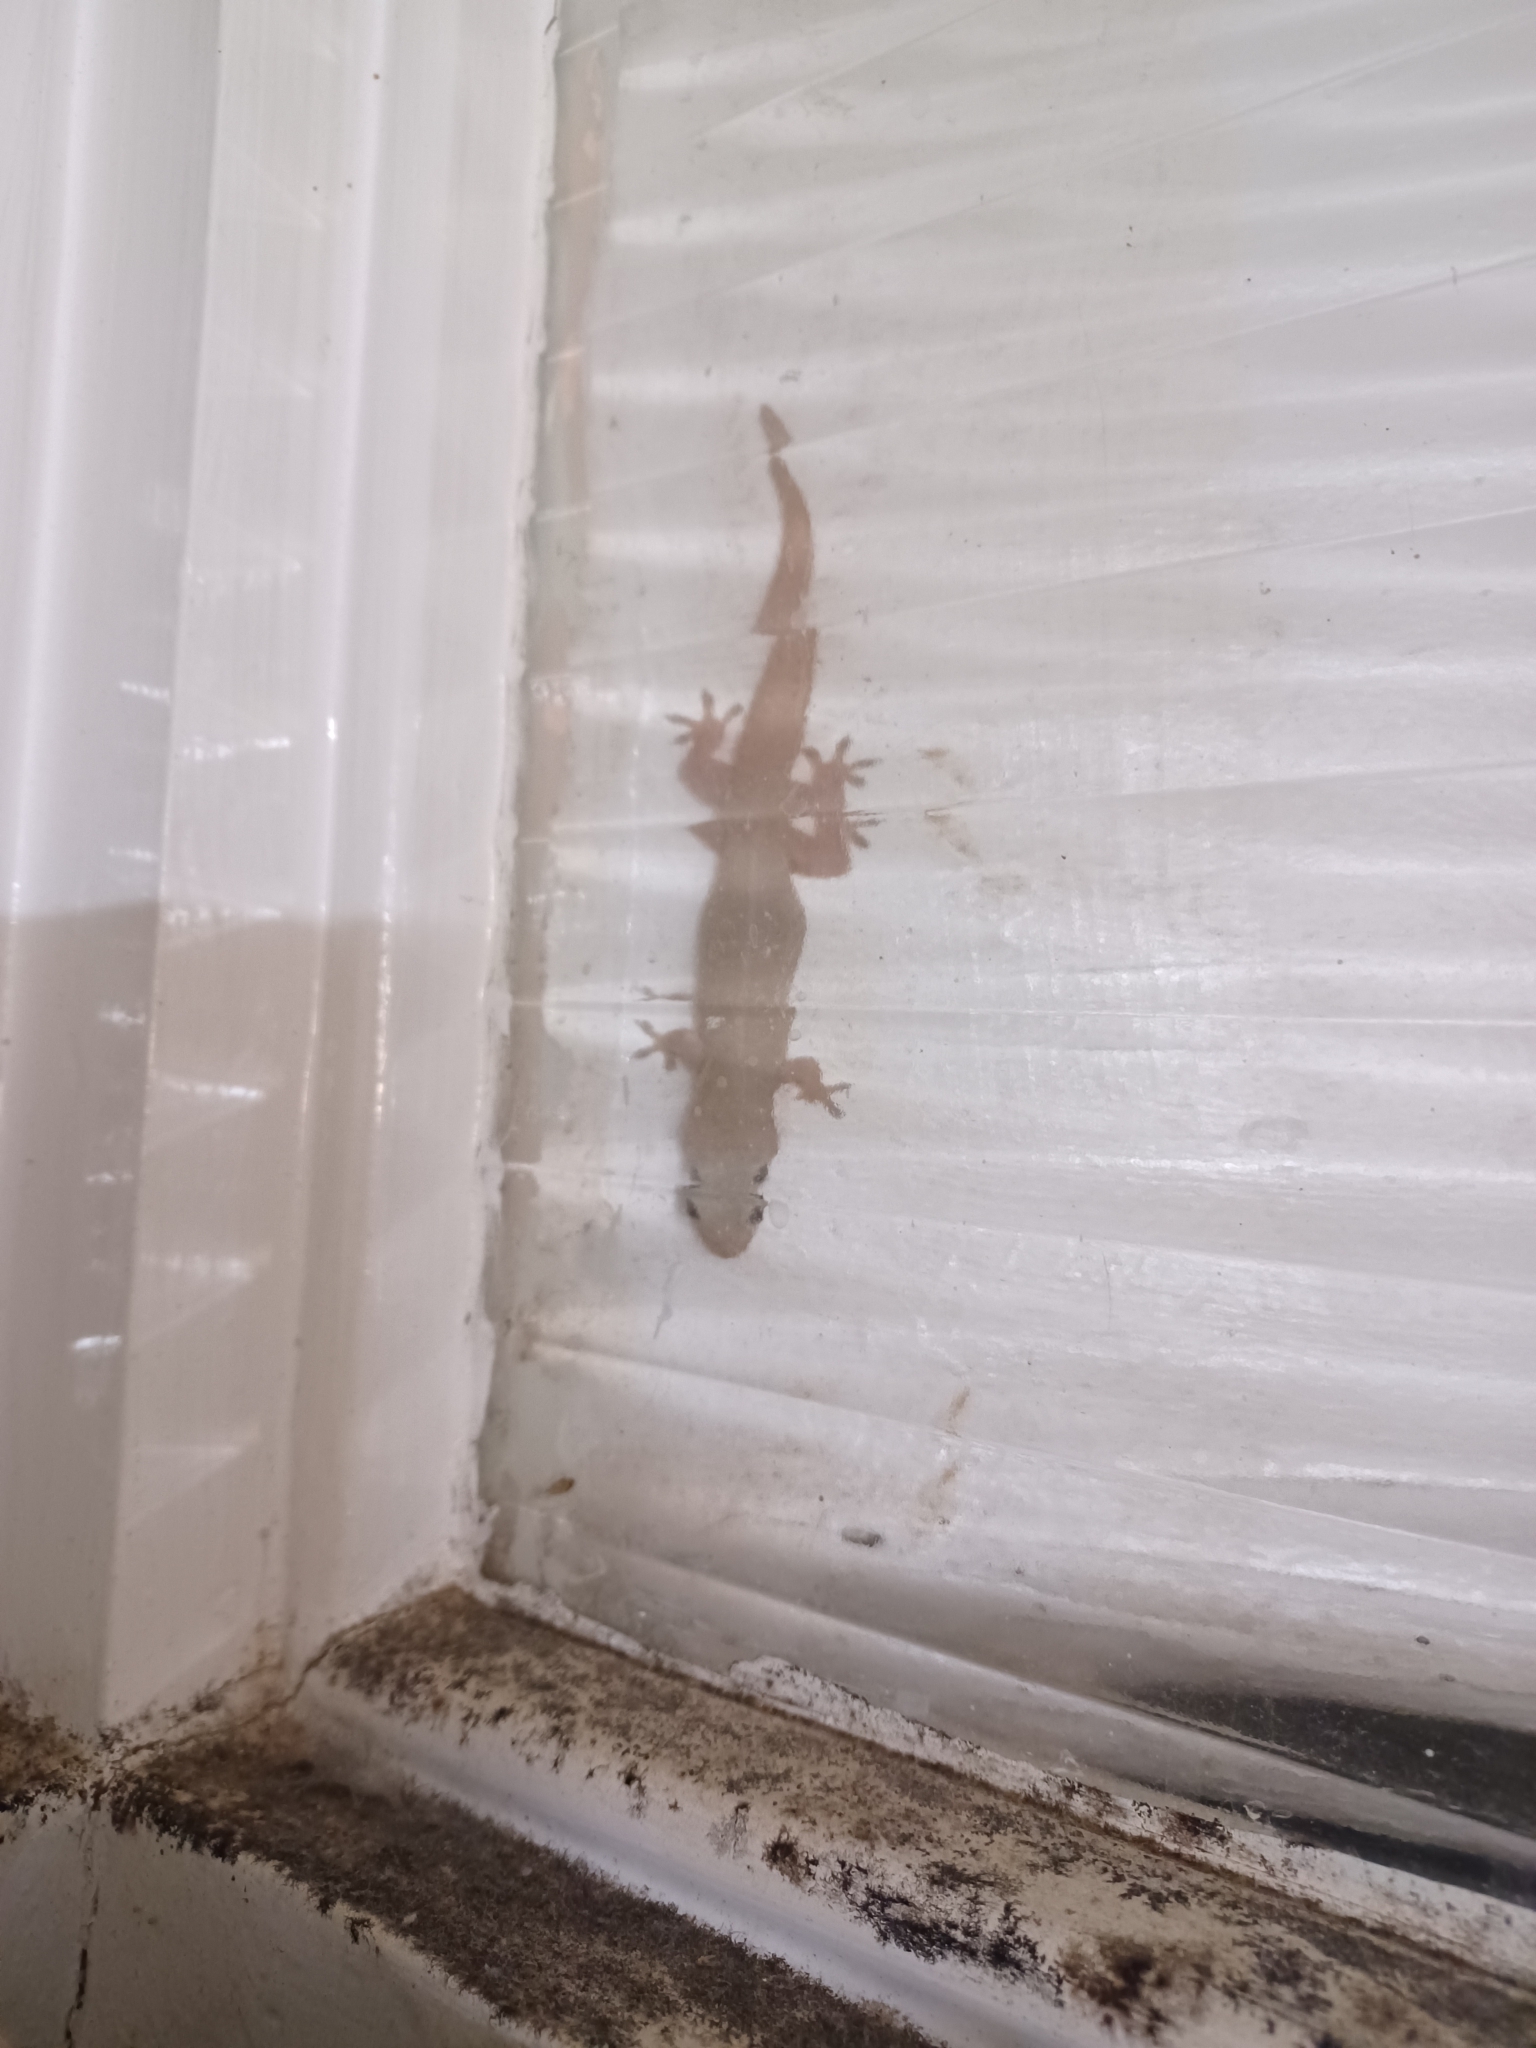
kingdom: Animalia
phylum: Chordata
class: Squamata
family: Gekkonidae
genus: Hemidactylus
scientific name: Hemidactylus frenatus
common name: Common house gecko
